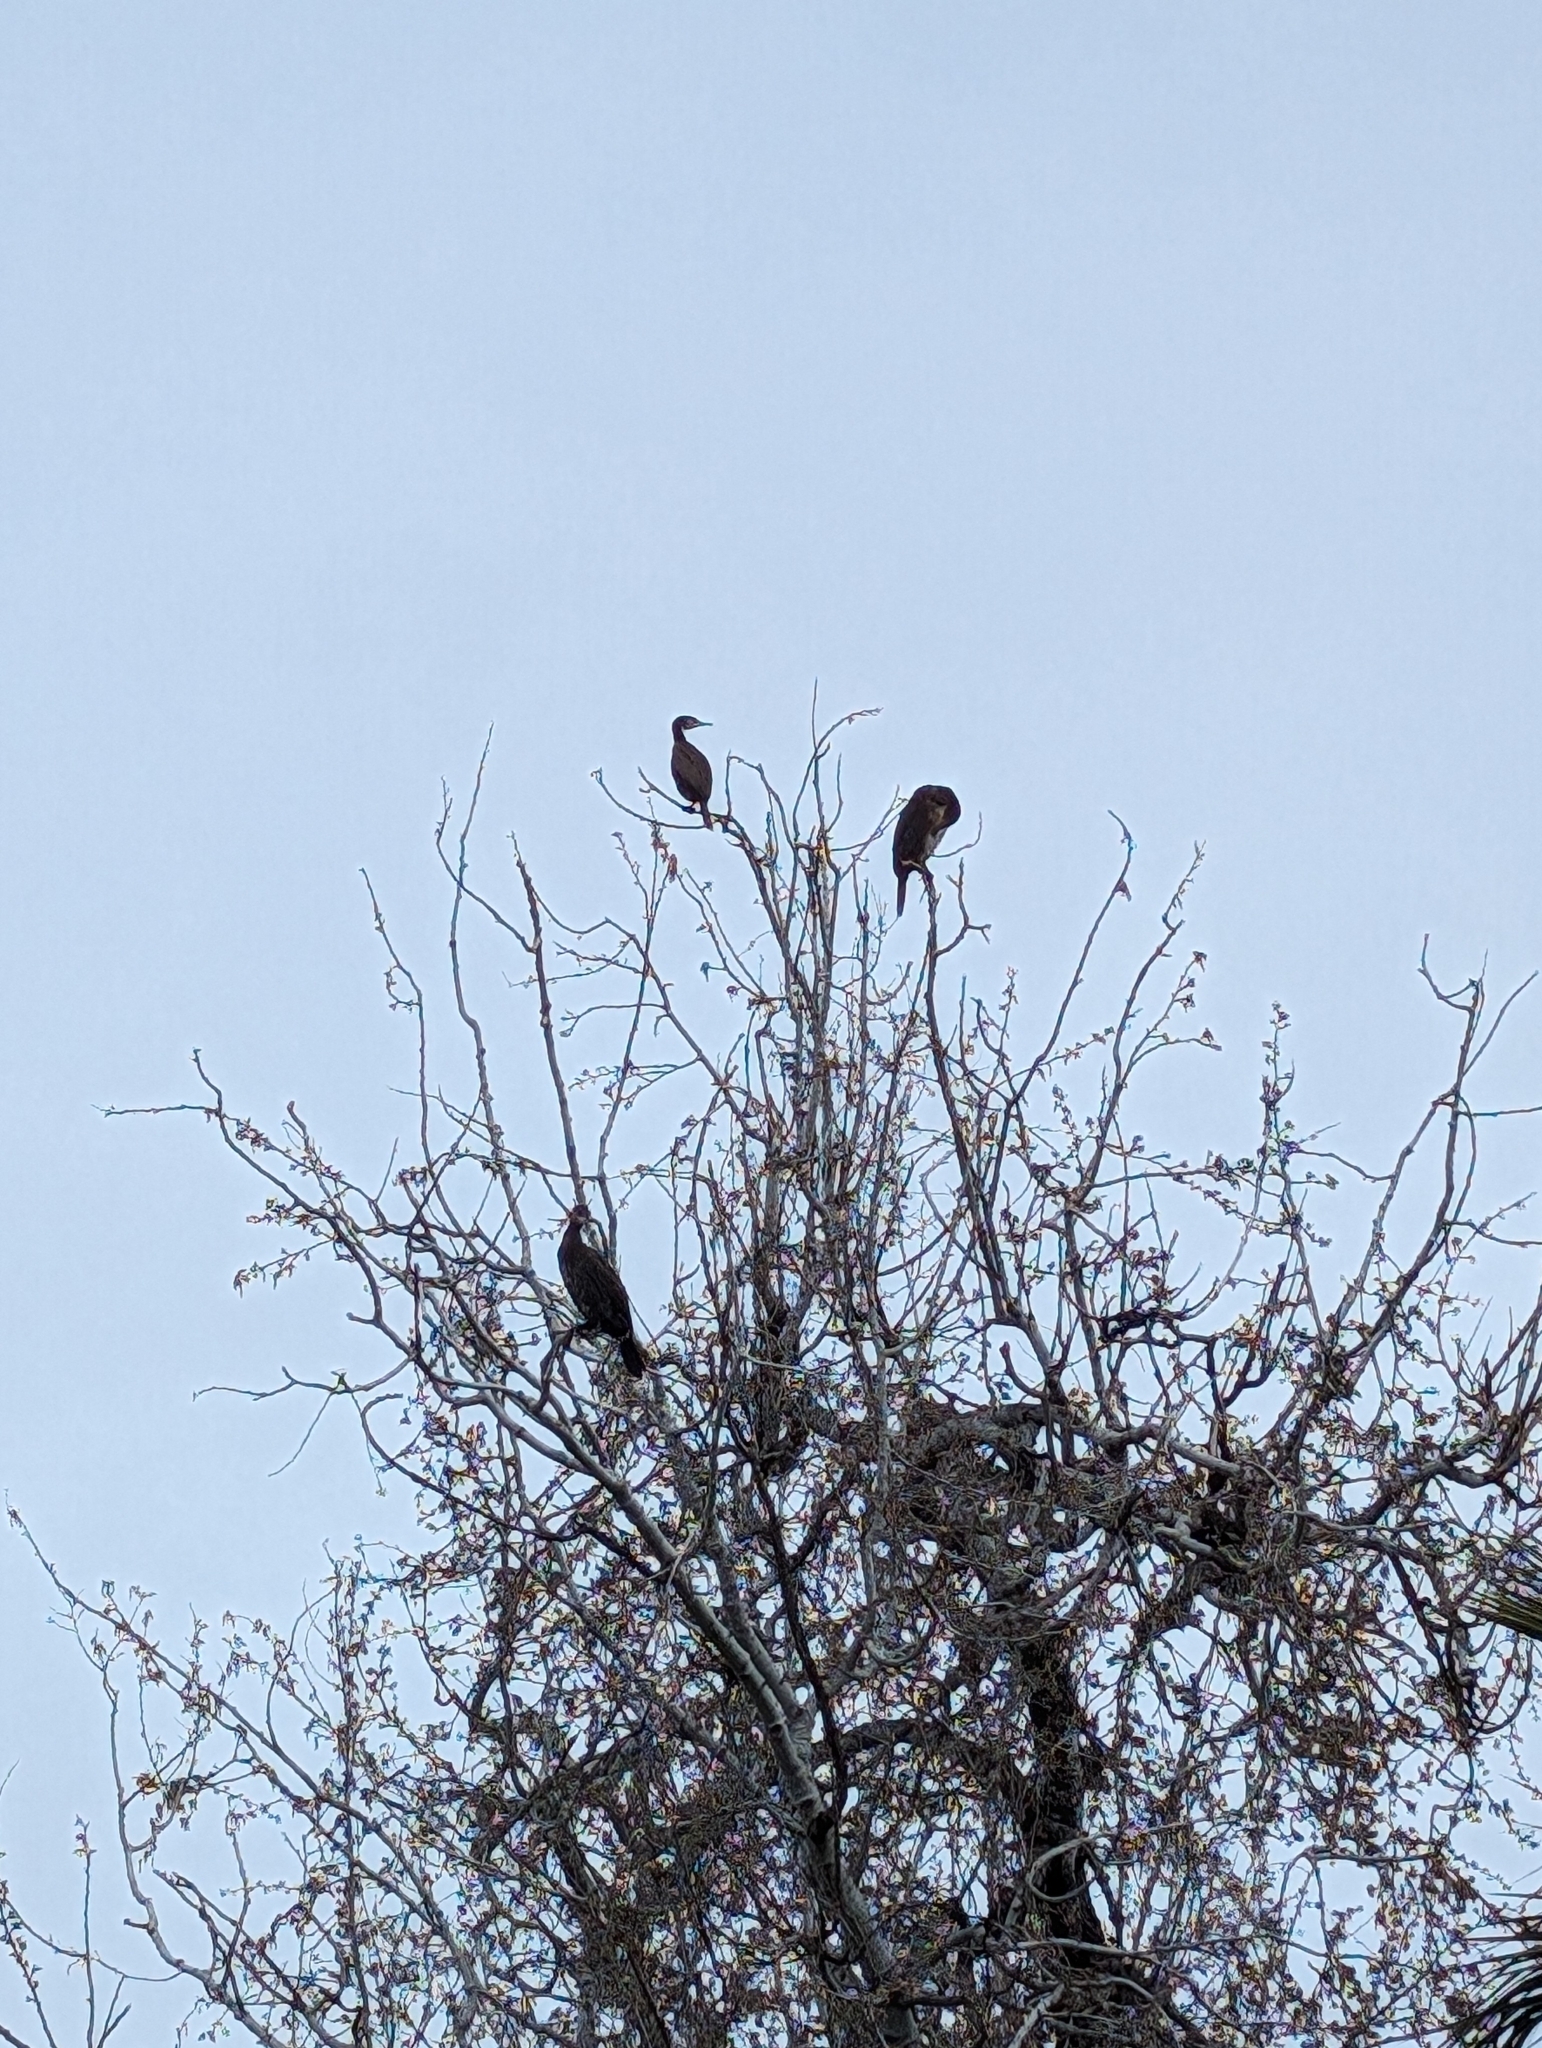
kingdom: Animalia
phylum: Chordata
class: Aves
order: Suliformes
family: Phalacrocoracidae
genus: Phalacrocorax
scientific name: Phalacrocorax carbo
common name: Great cormorant
